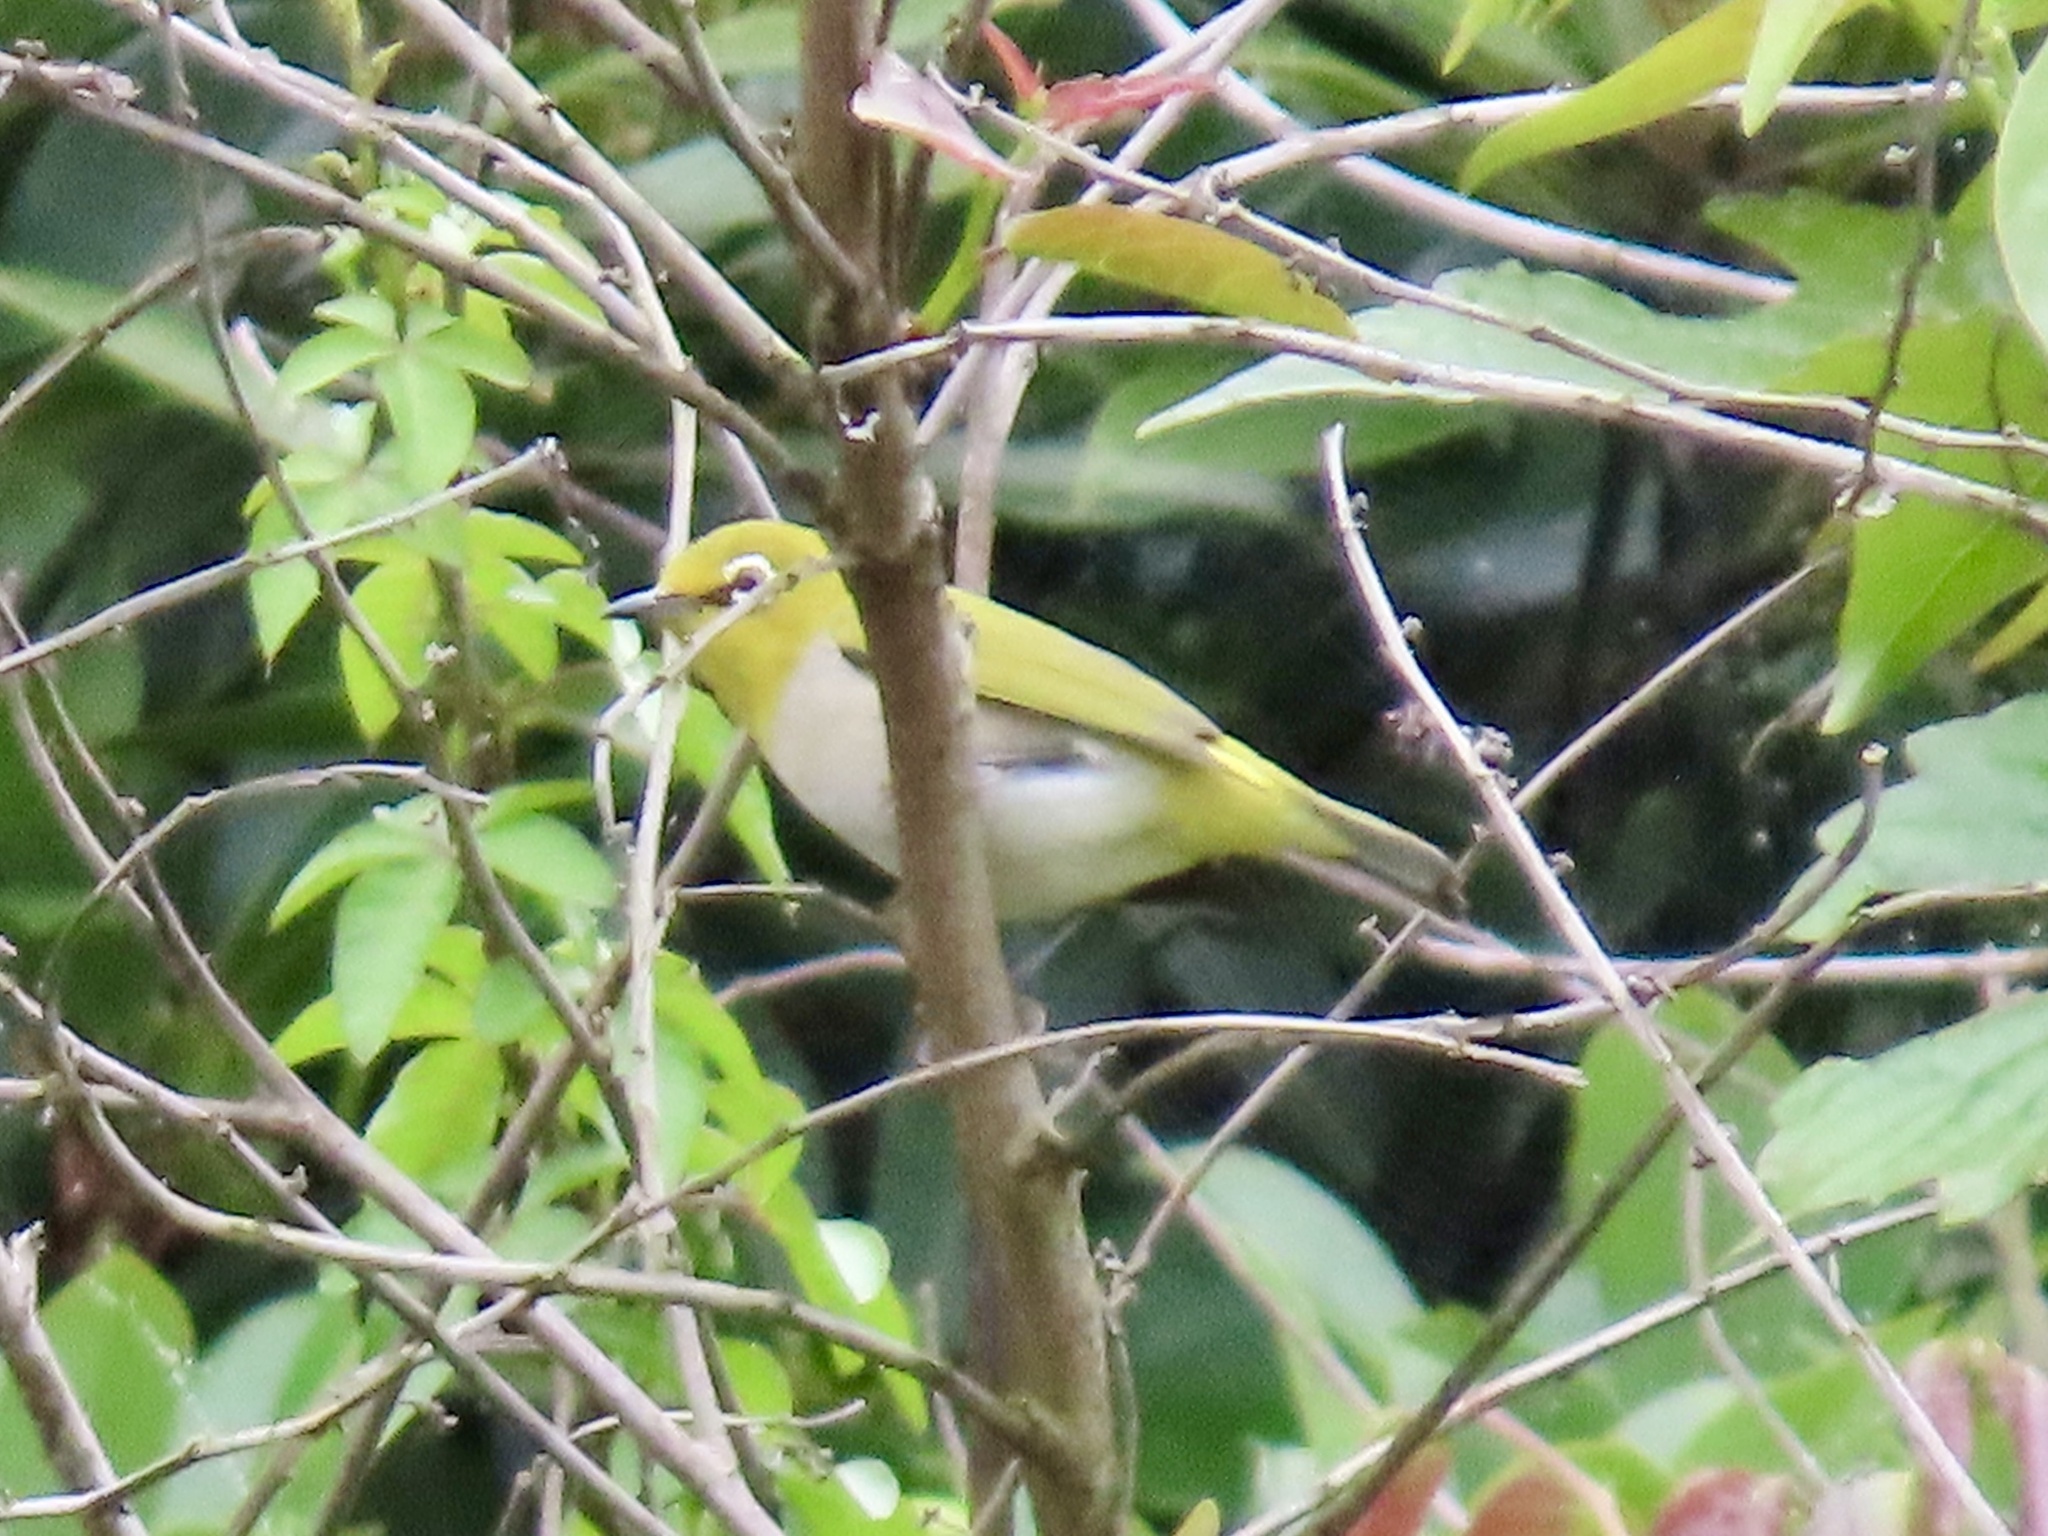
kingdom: Animalia
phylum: Chordata
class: Aves
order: Passeriformes
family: Zosteropidae
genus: Zosterops
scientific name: Zosterops simplex
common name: Swinhoe's white-eye
